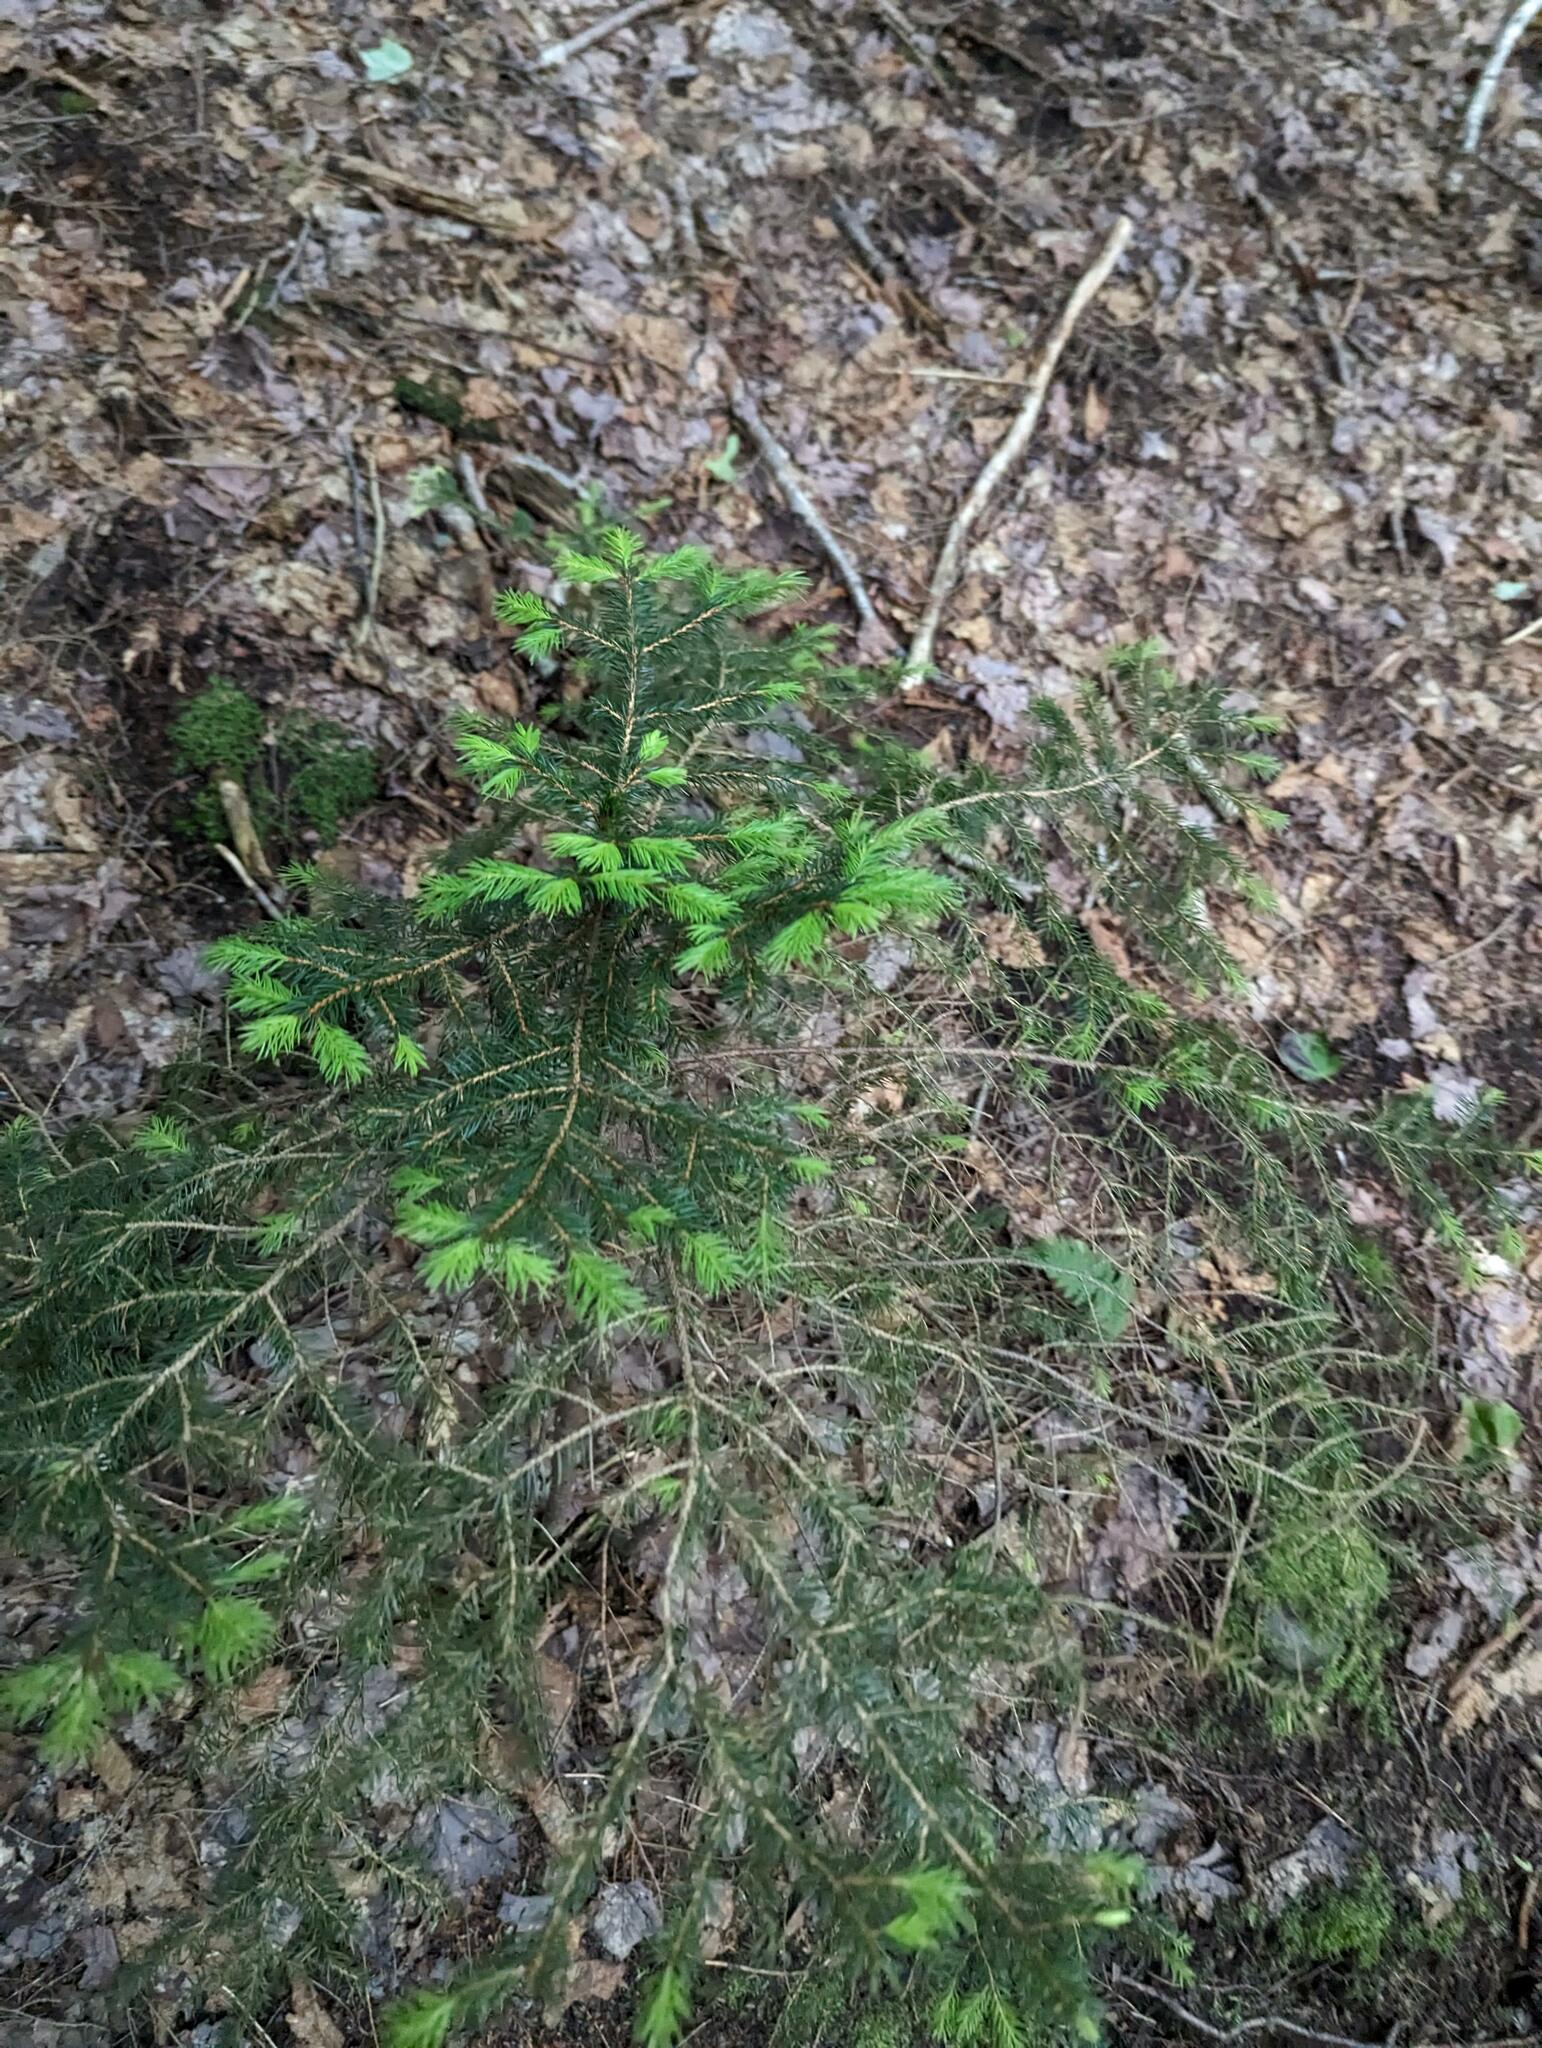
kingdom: Plantae
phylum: Tracheophyta
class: Pinopsida
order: Pinales
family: Pinaceae
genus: Picea
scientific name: Picea rubens
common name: Red spruce
